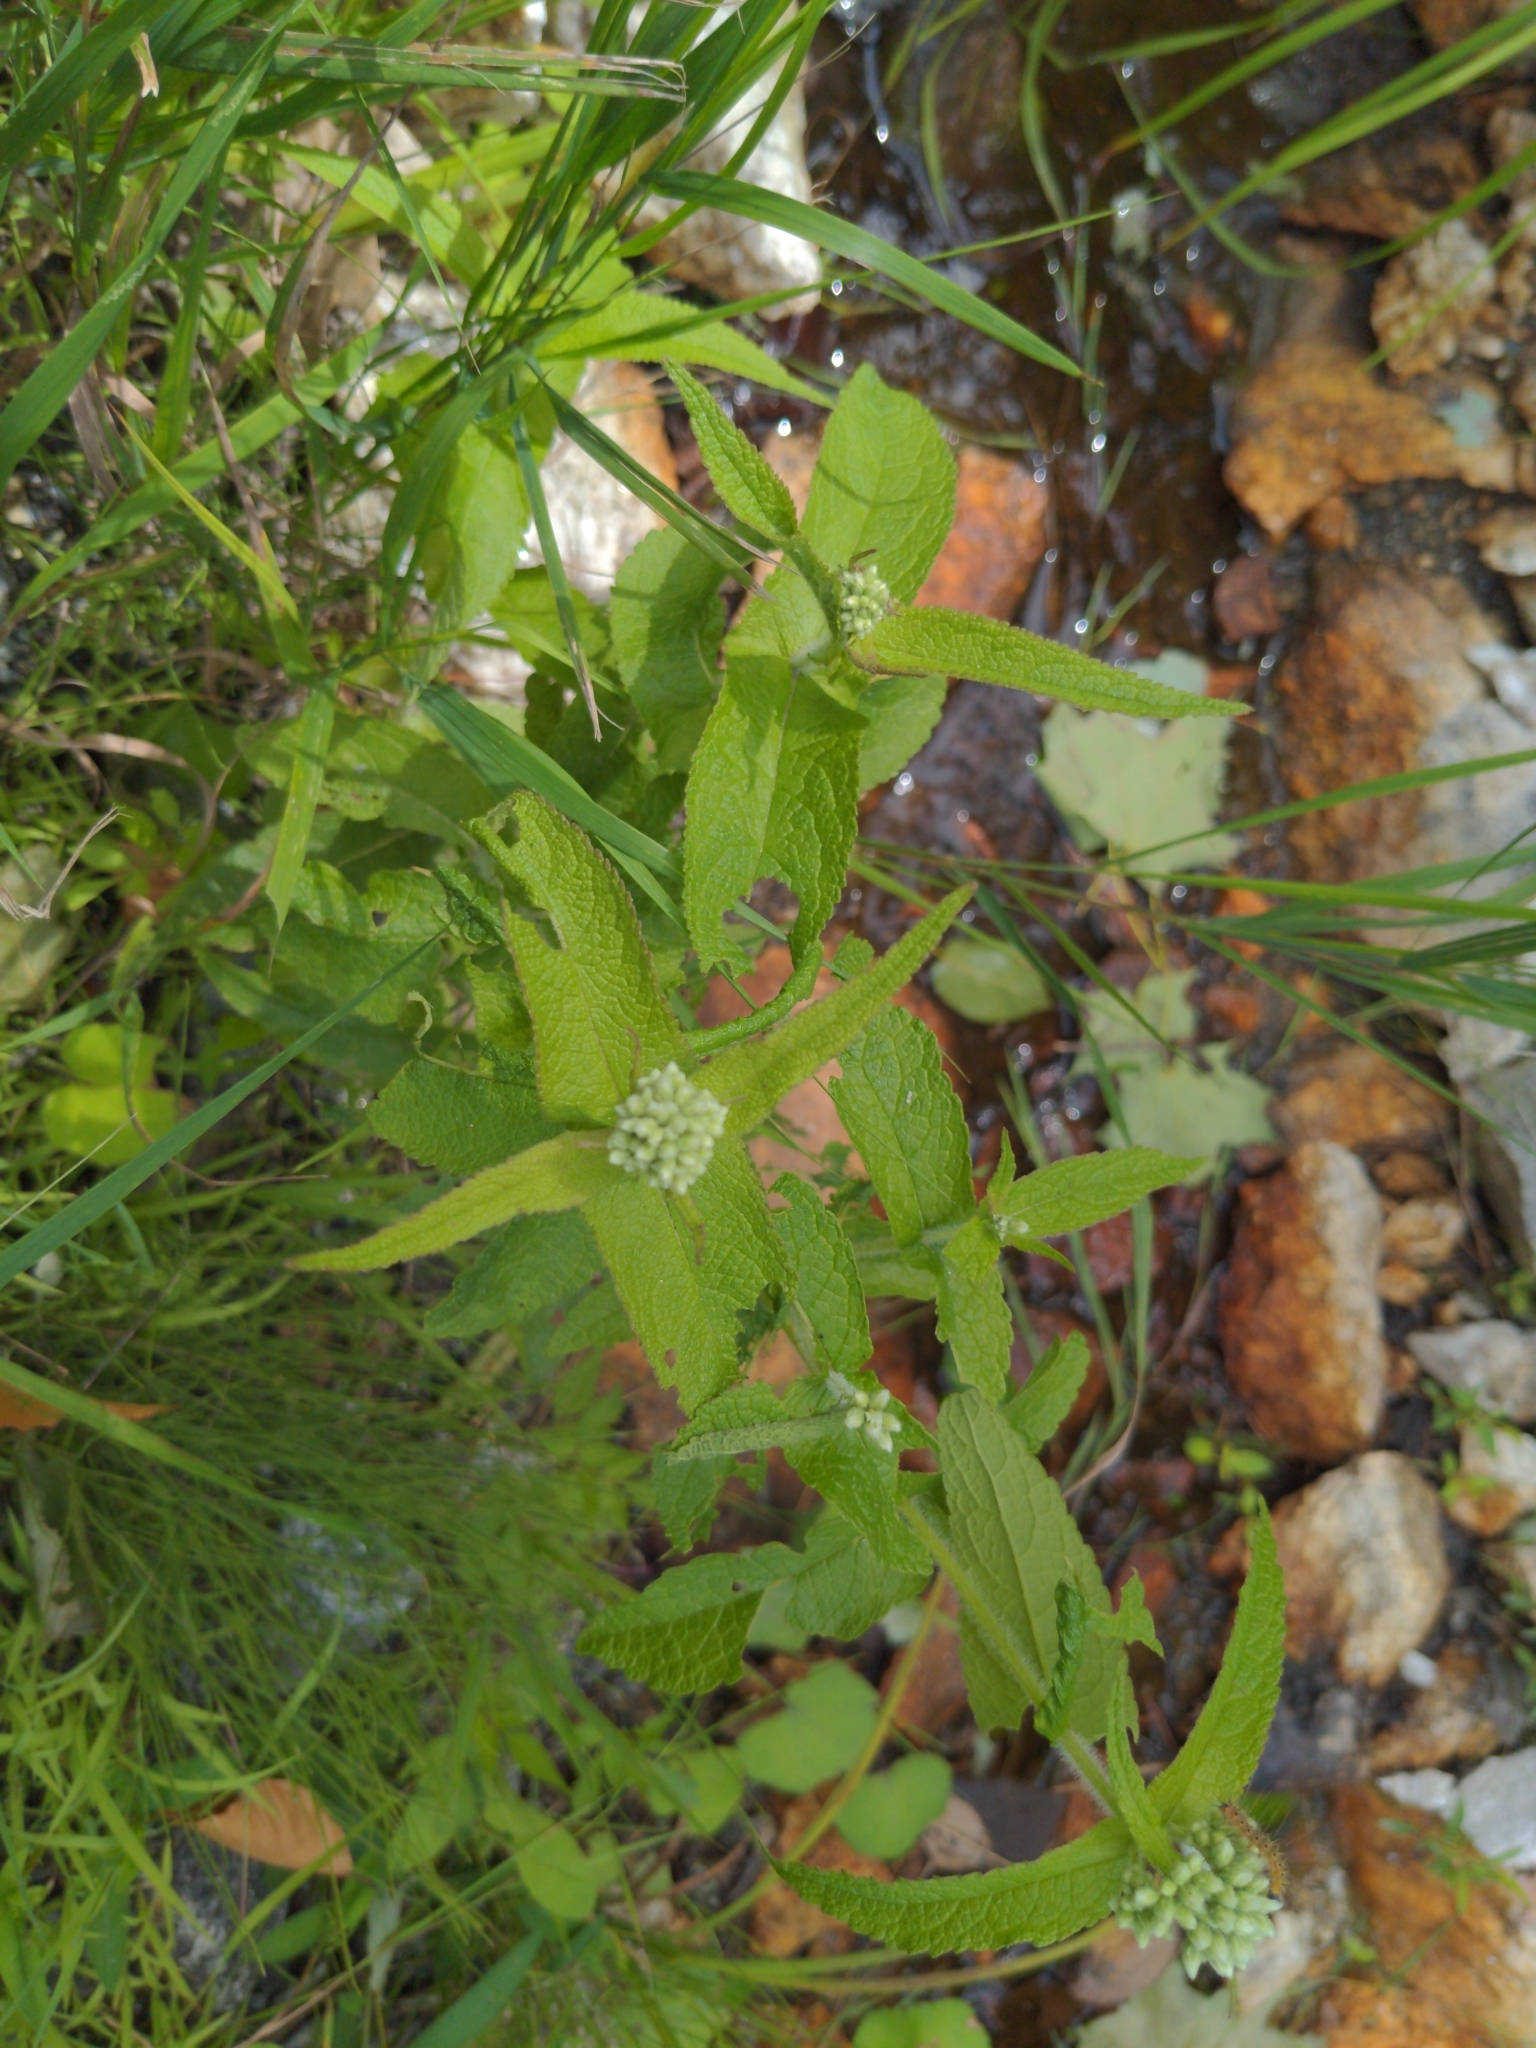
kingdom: Plantae
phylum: Tracheophyta
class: Magnoliopsida
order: Asterales
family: Asteraceae
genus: Eupatorium
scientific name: Eupatorium perfoliatum
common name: Boneset
